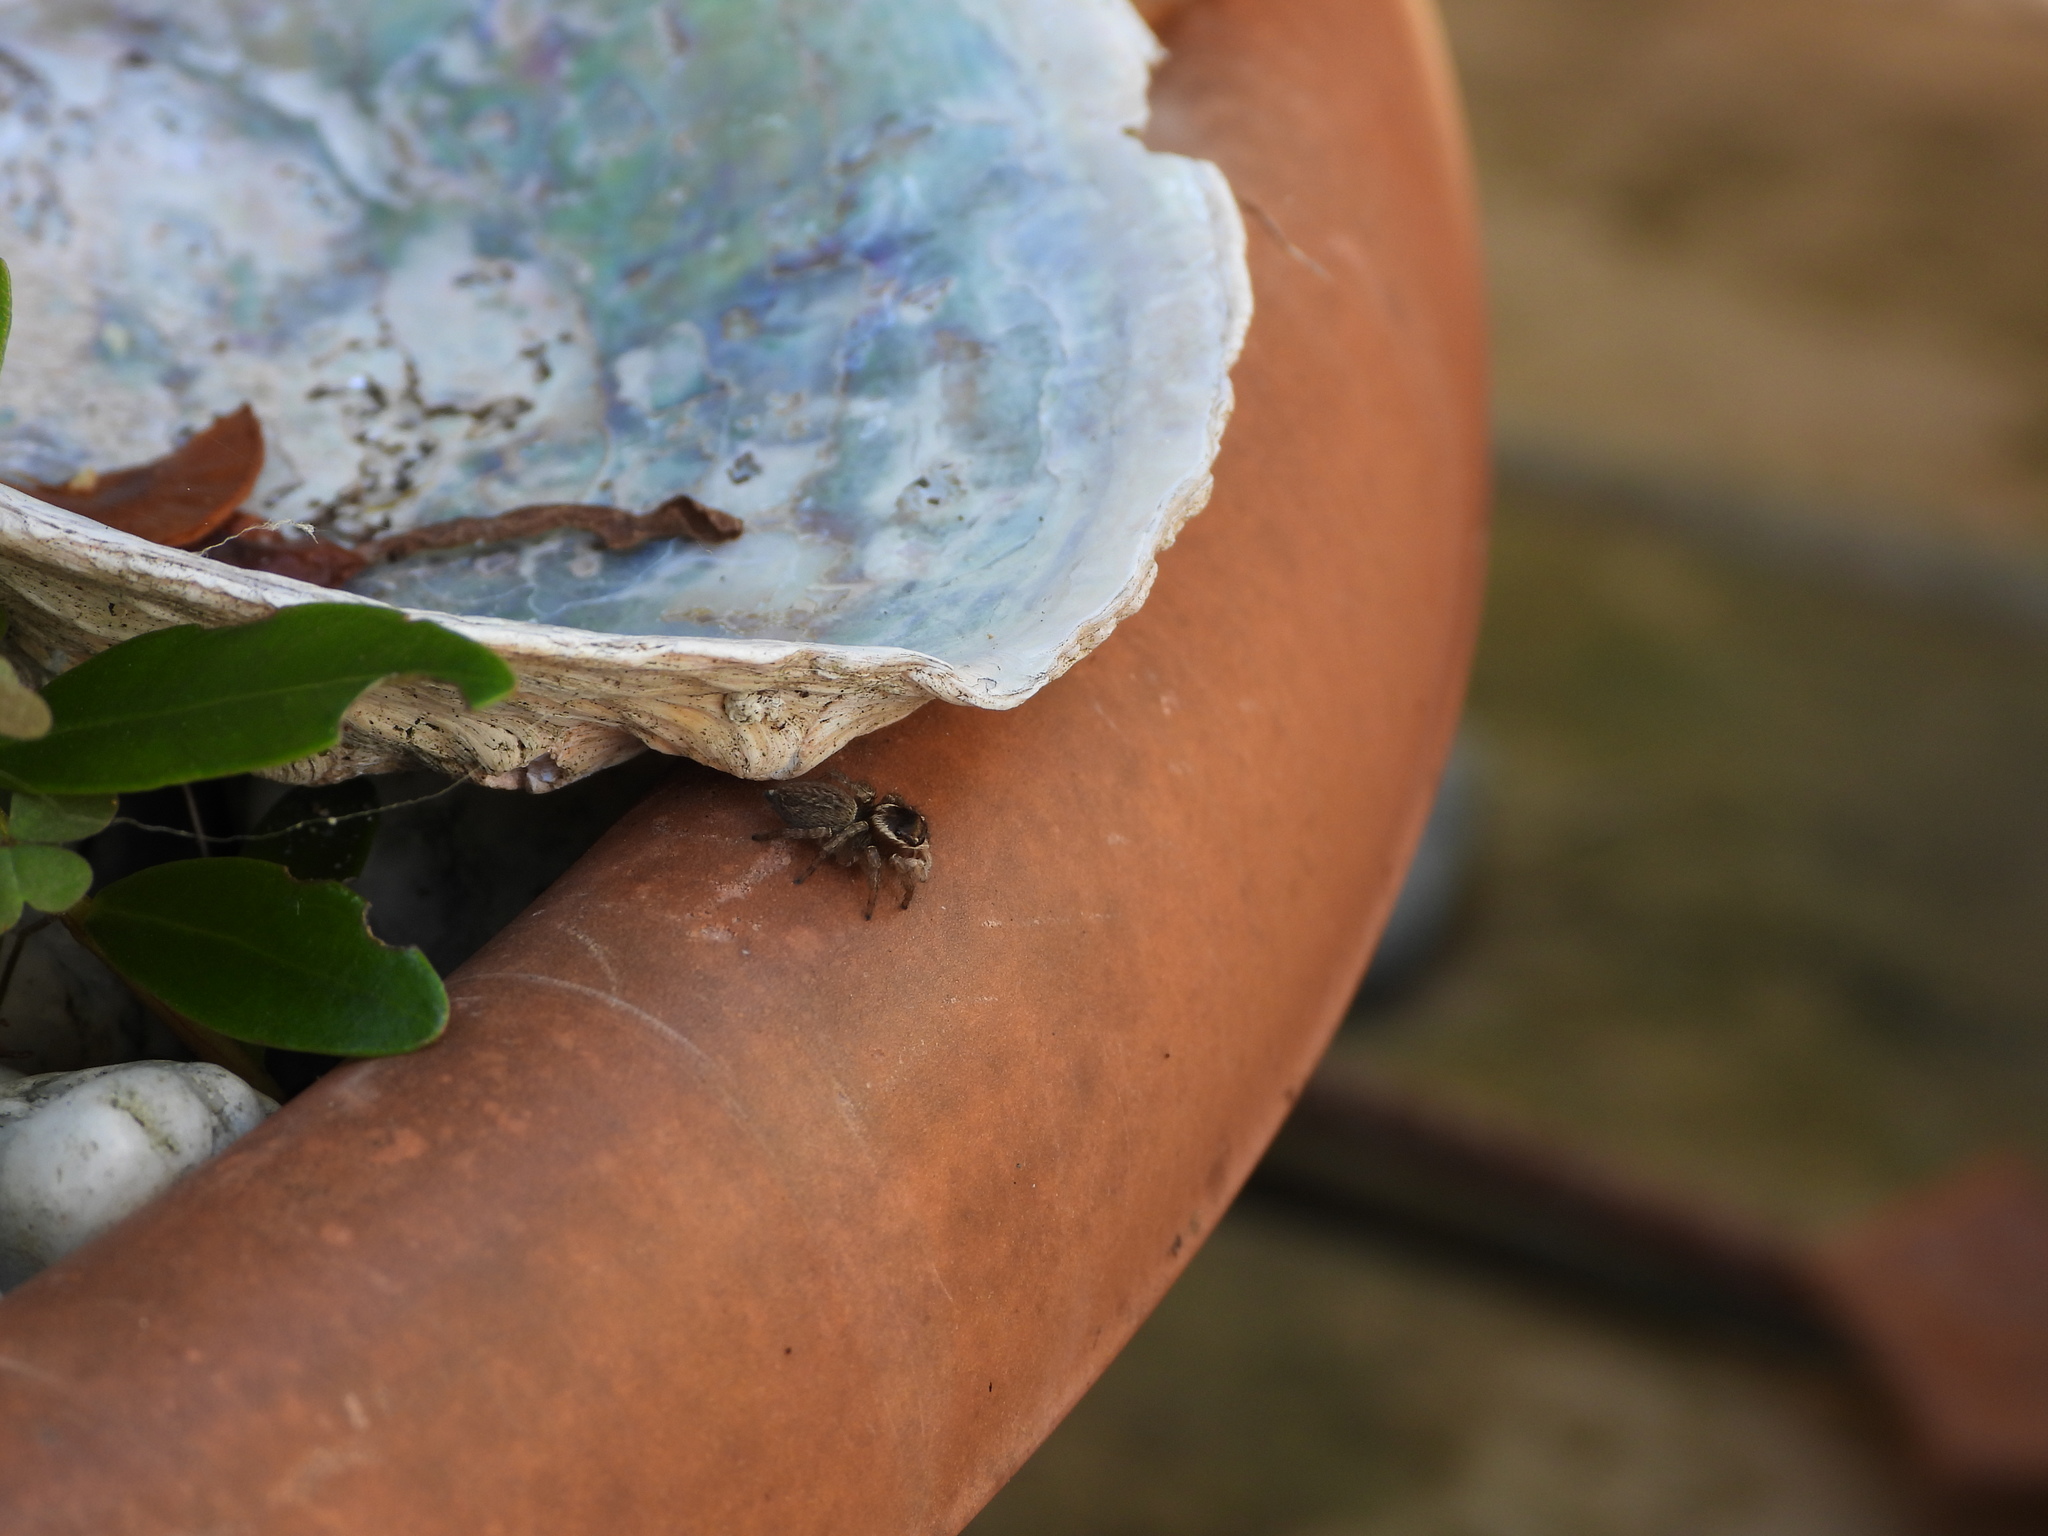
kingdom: Animalia
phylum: Arthropoda
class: Arachnida
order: Araneae
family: Salticidae
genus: Maratus
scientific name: Maratus griseus
